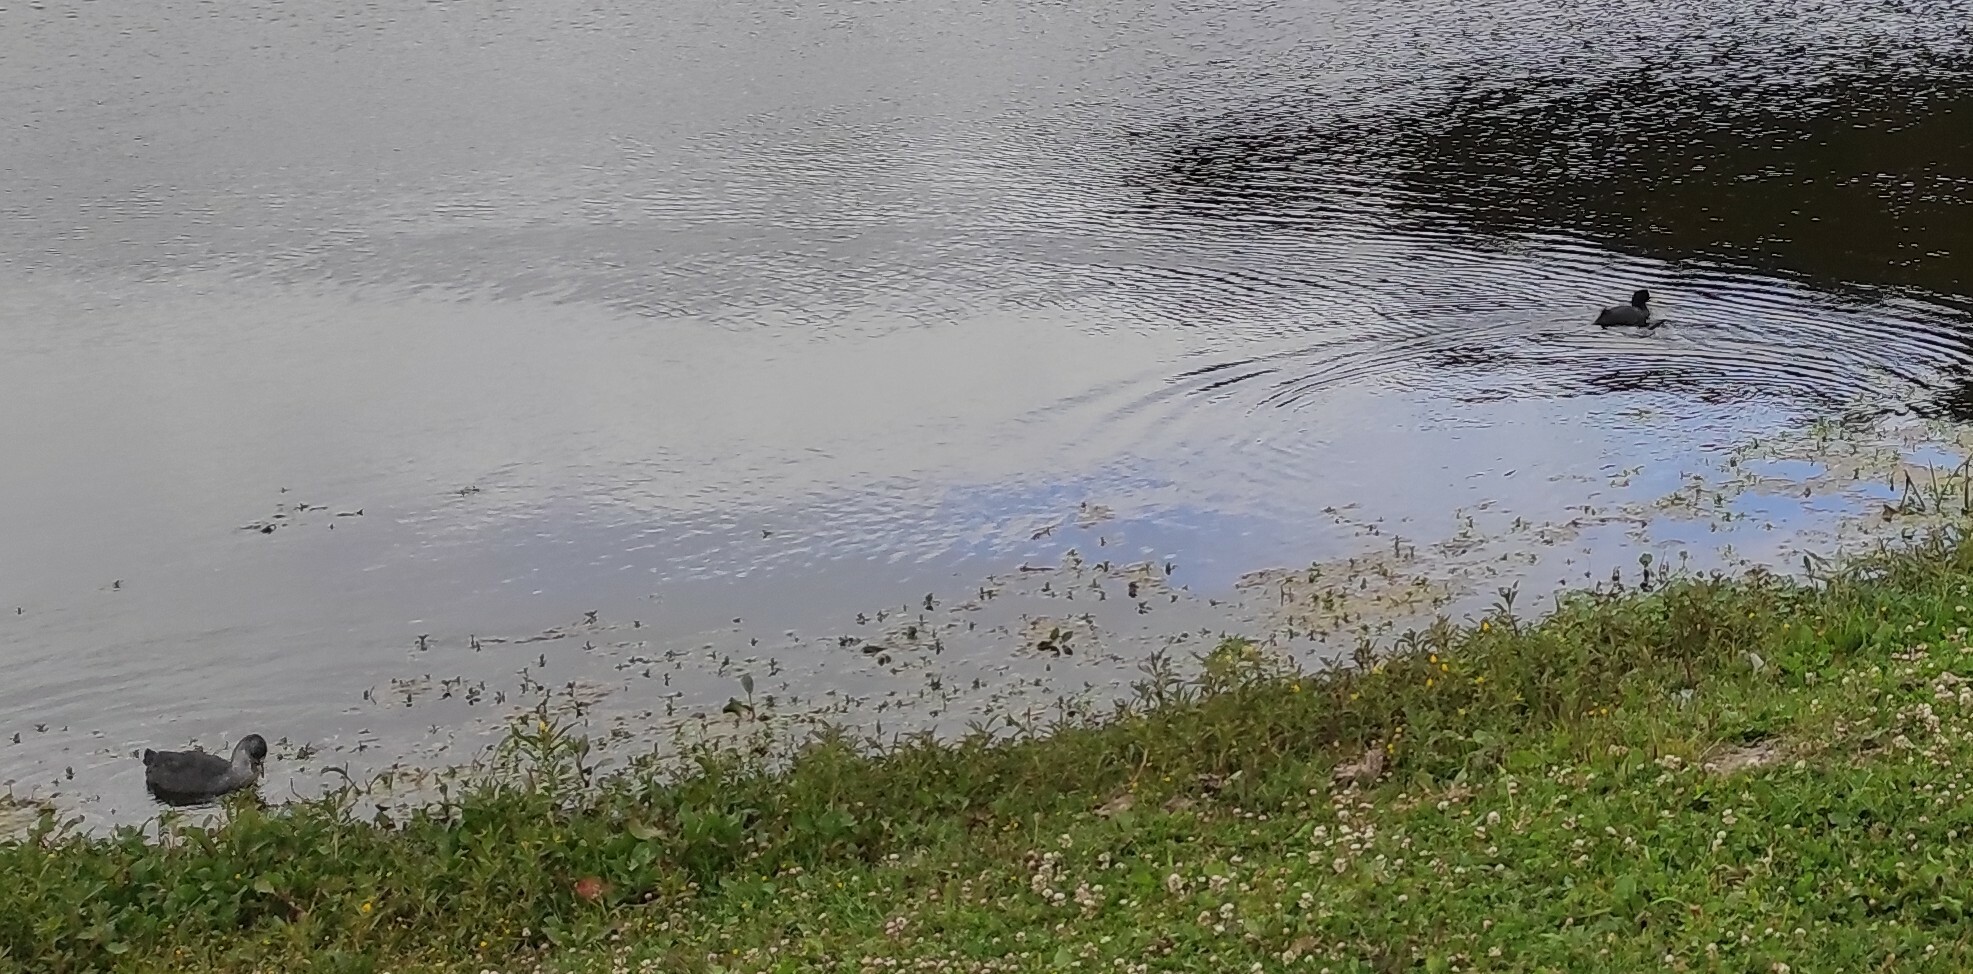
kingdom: Animalia
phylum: Chordata
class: Aves
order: Gruiformes
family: Rallidae
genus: Fulica
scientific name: Fulica armillata
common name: Red-gartered coot
